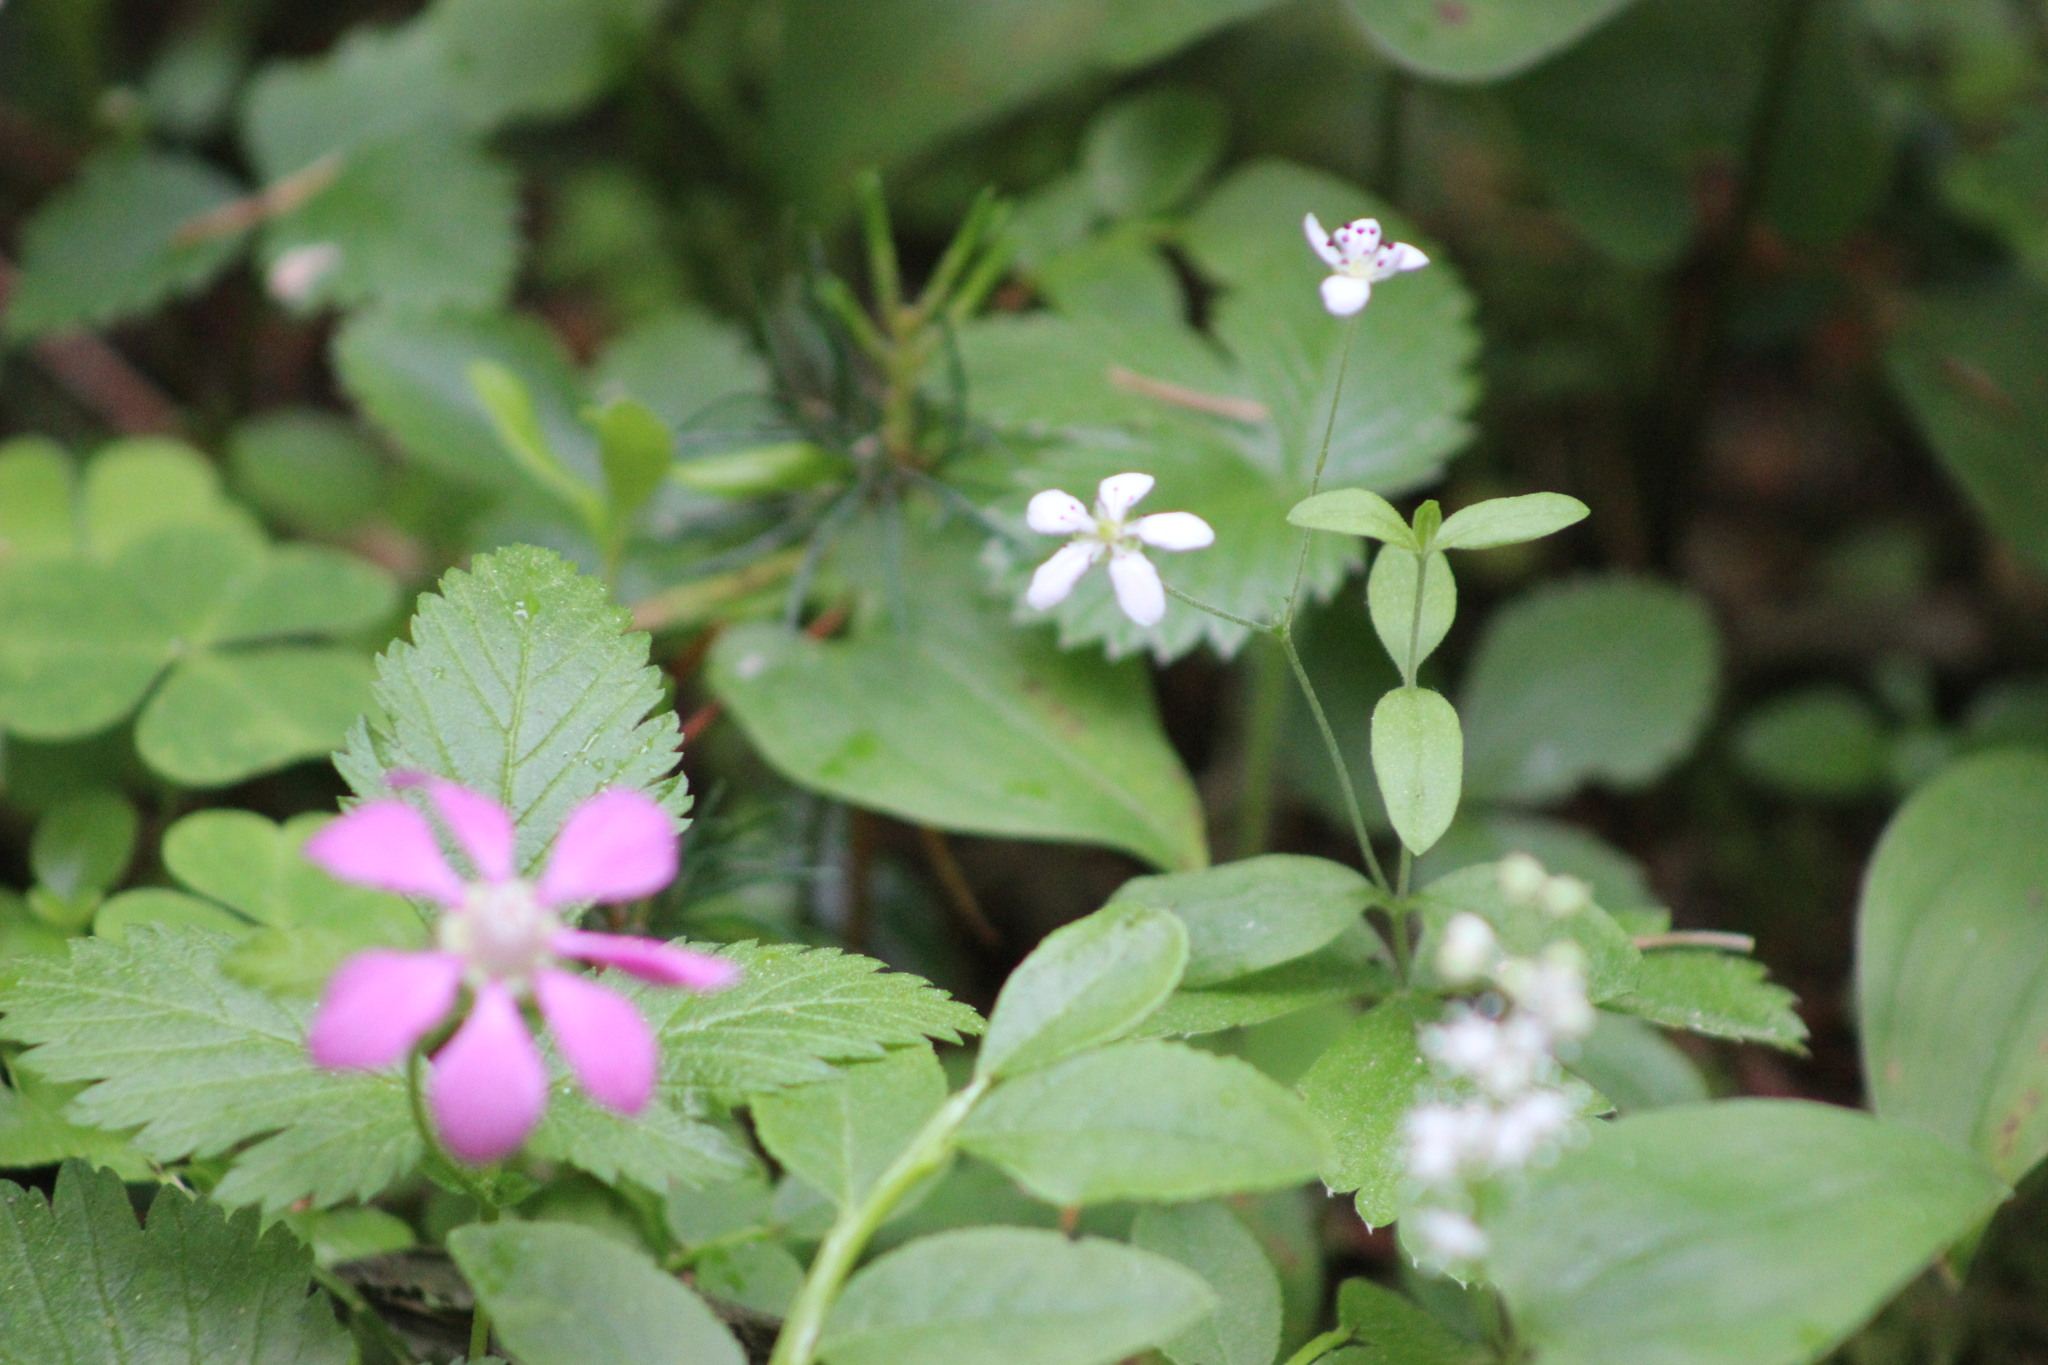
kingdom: Plantae
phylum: Tracheophyta
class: Magnoliopsida
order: Caryophyllales
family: Caryophyllaceae
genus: Moehringia
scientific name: Moehringia lateriflora
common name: Blunt-leaved sandwort
